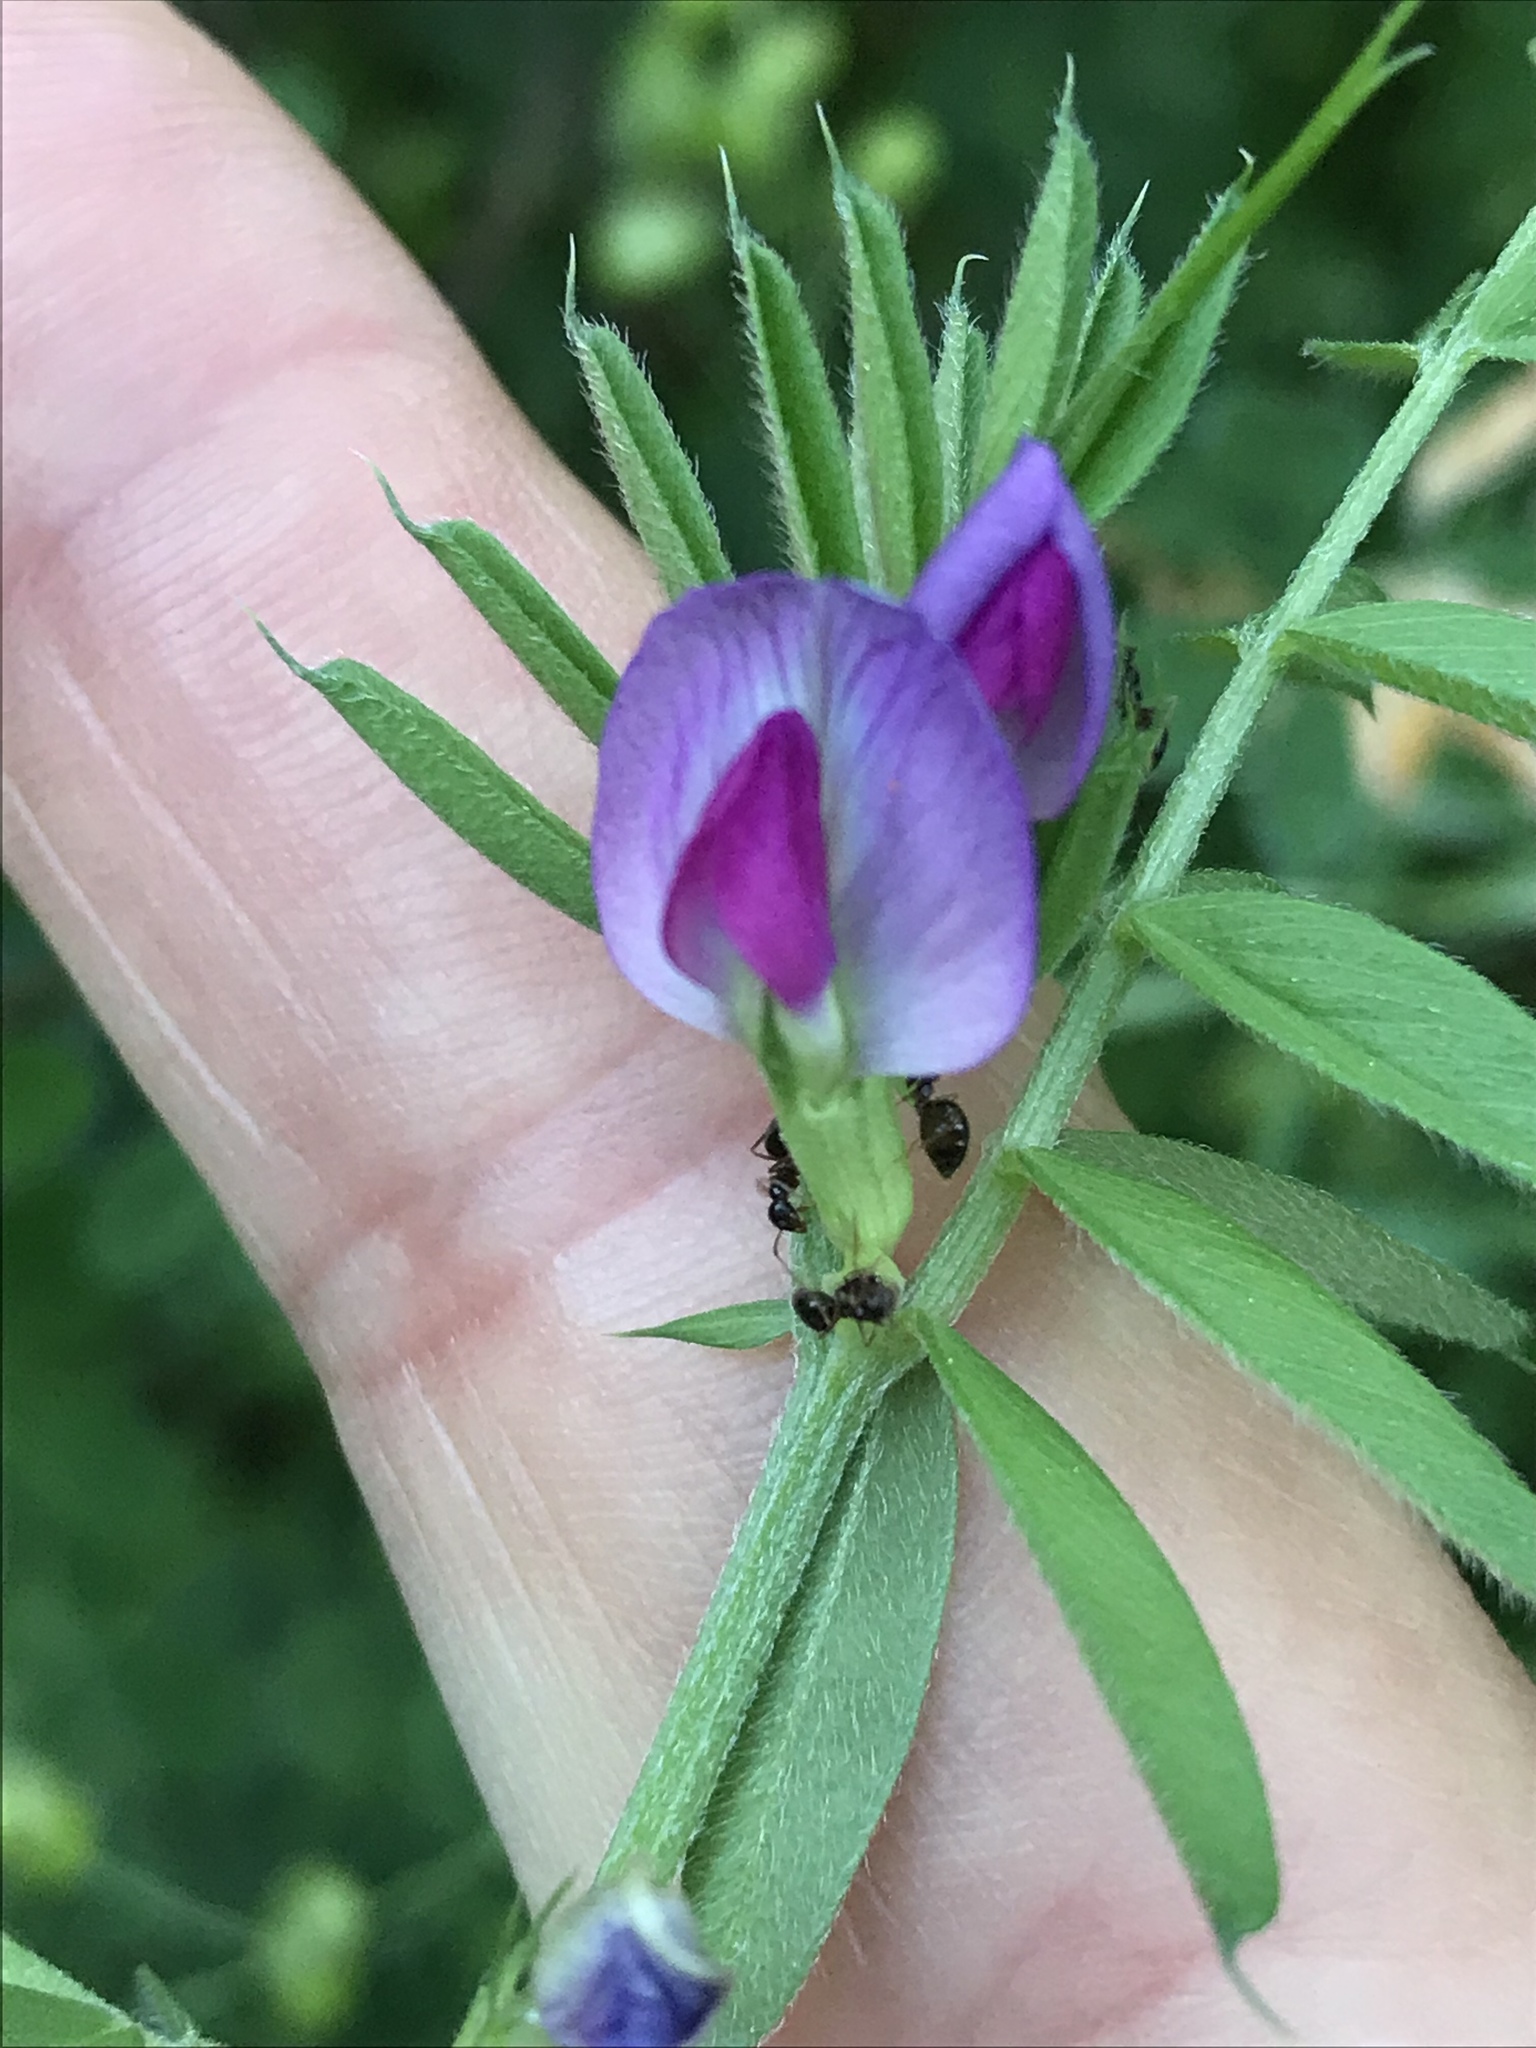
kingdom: Plantae
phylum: Tracheophyta
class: Magnoliopsida
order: Fabales
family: Fabaceae
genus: Vicia
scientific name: Vicia sativa
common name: Garden vetch
